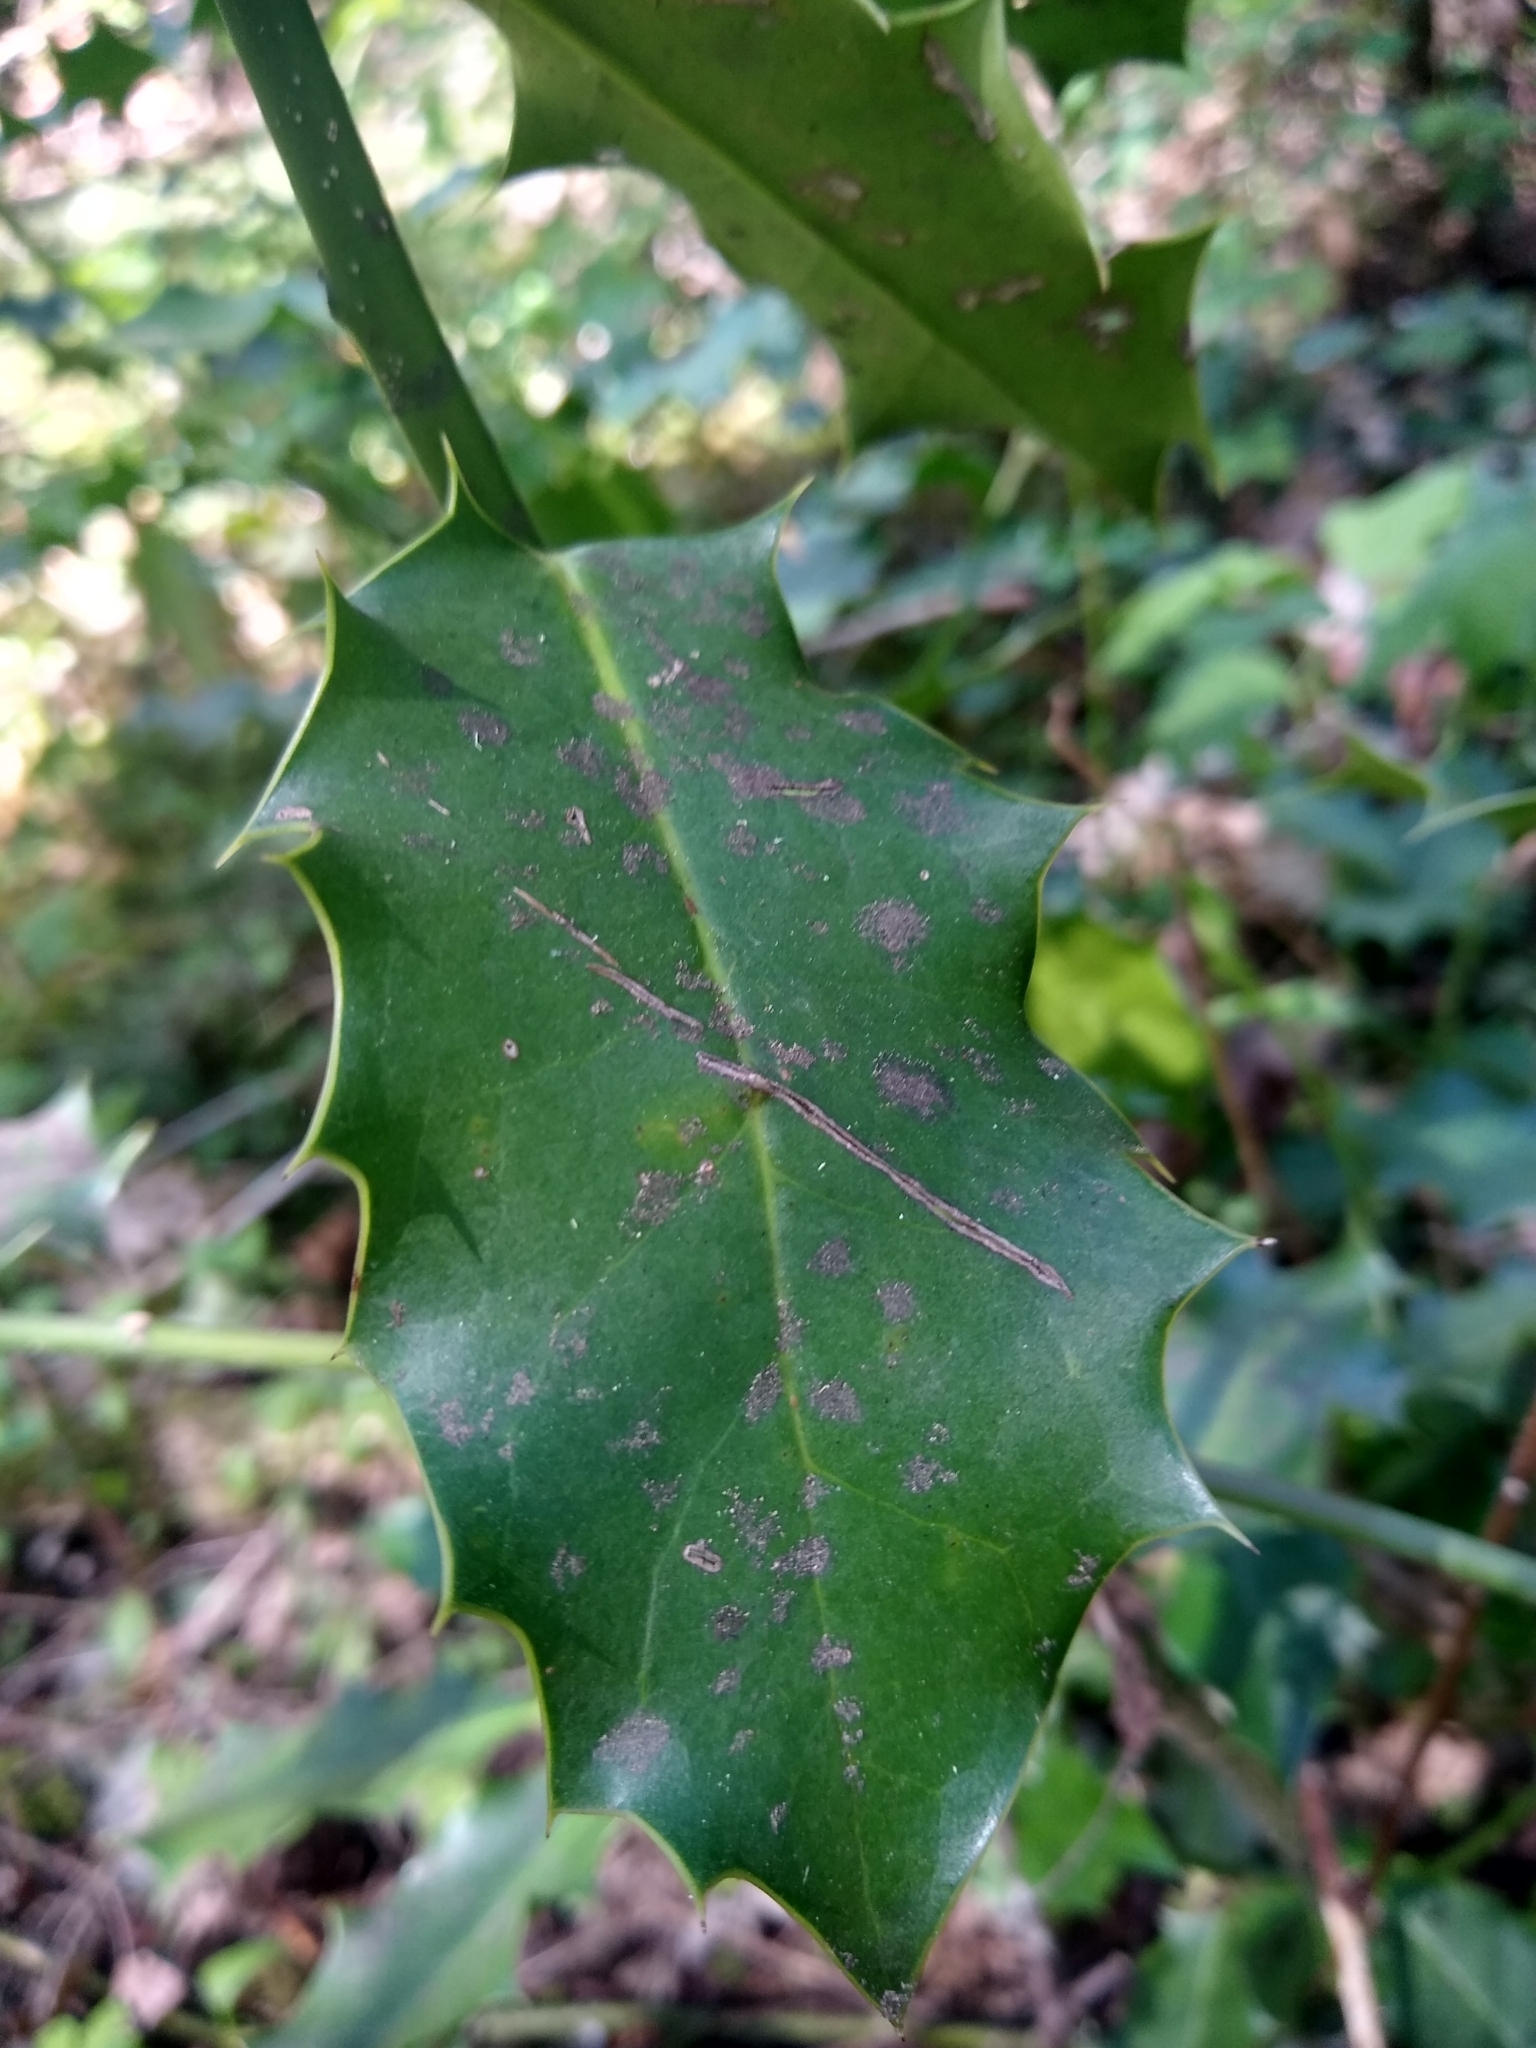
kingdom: Plantae
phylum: Tracheophyta
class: Magnoliopsida
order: Aquifoliales
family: Aquifoliaceae
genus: Ilex
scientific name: Ilex aquifolium
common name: English holly
